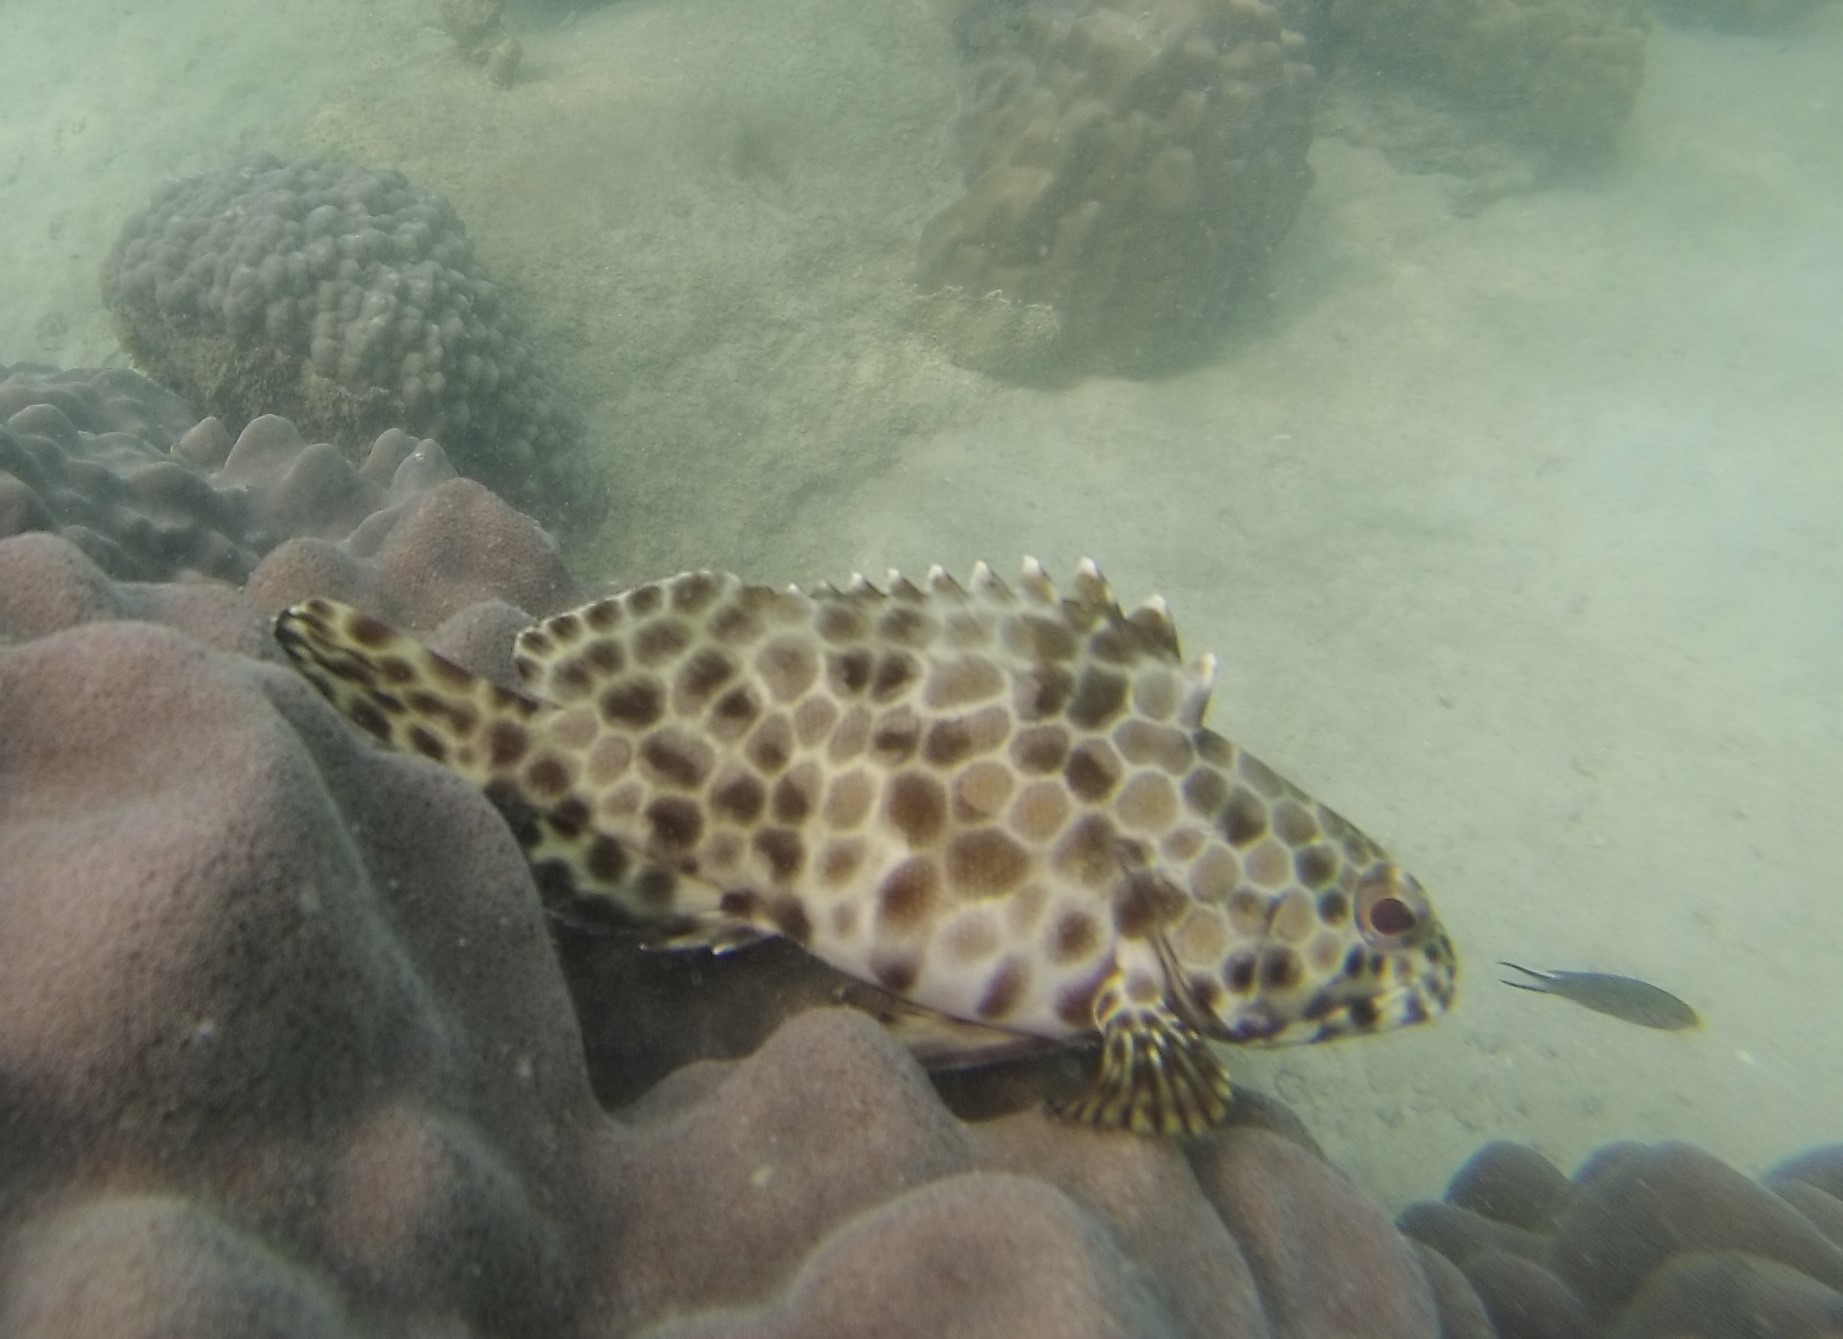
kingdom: Animalia
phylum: Chordata
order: Perciformes
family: Serranidae
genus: Epinephelus
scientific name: Epinephelus quoyanus
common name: Longfin grouper
